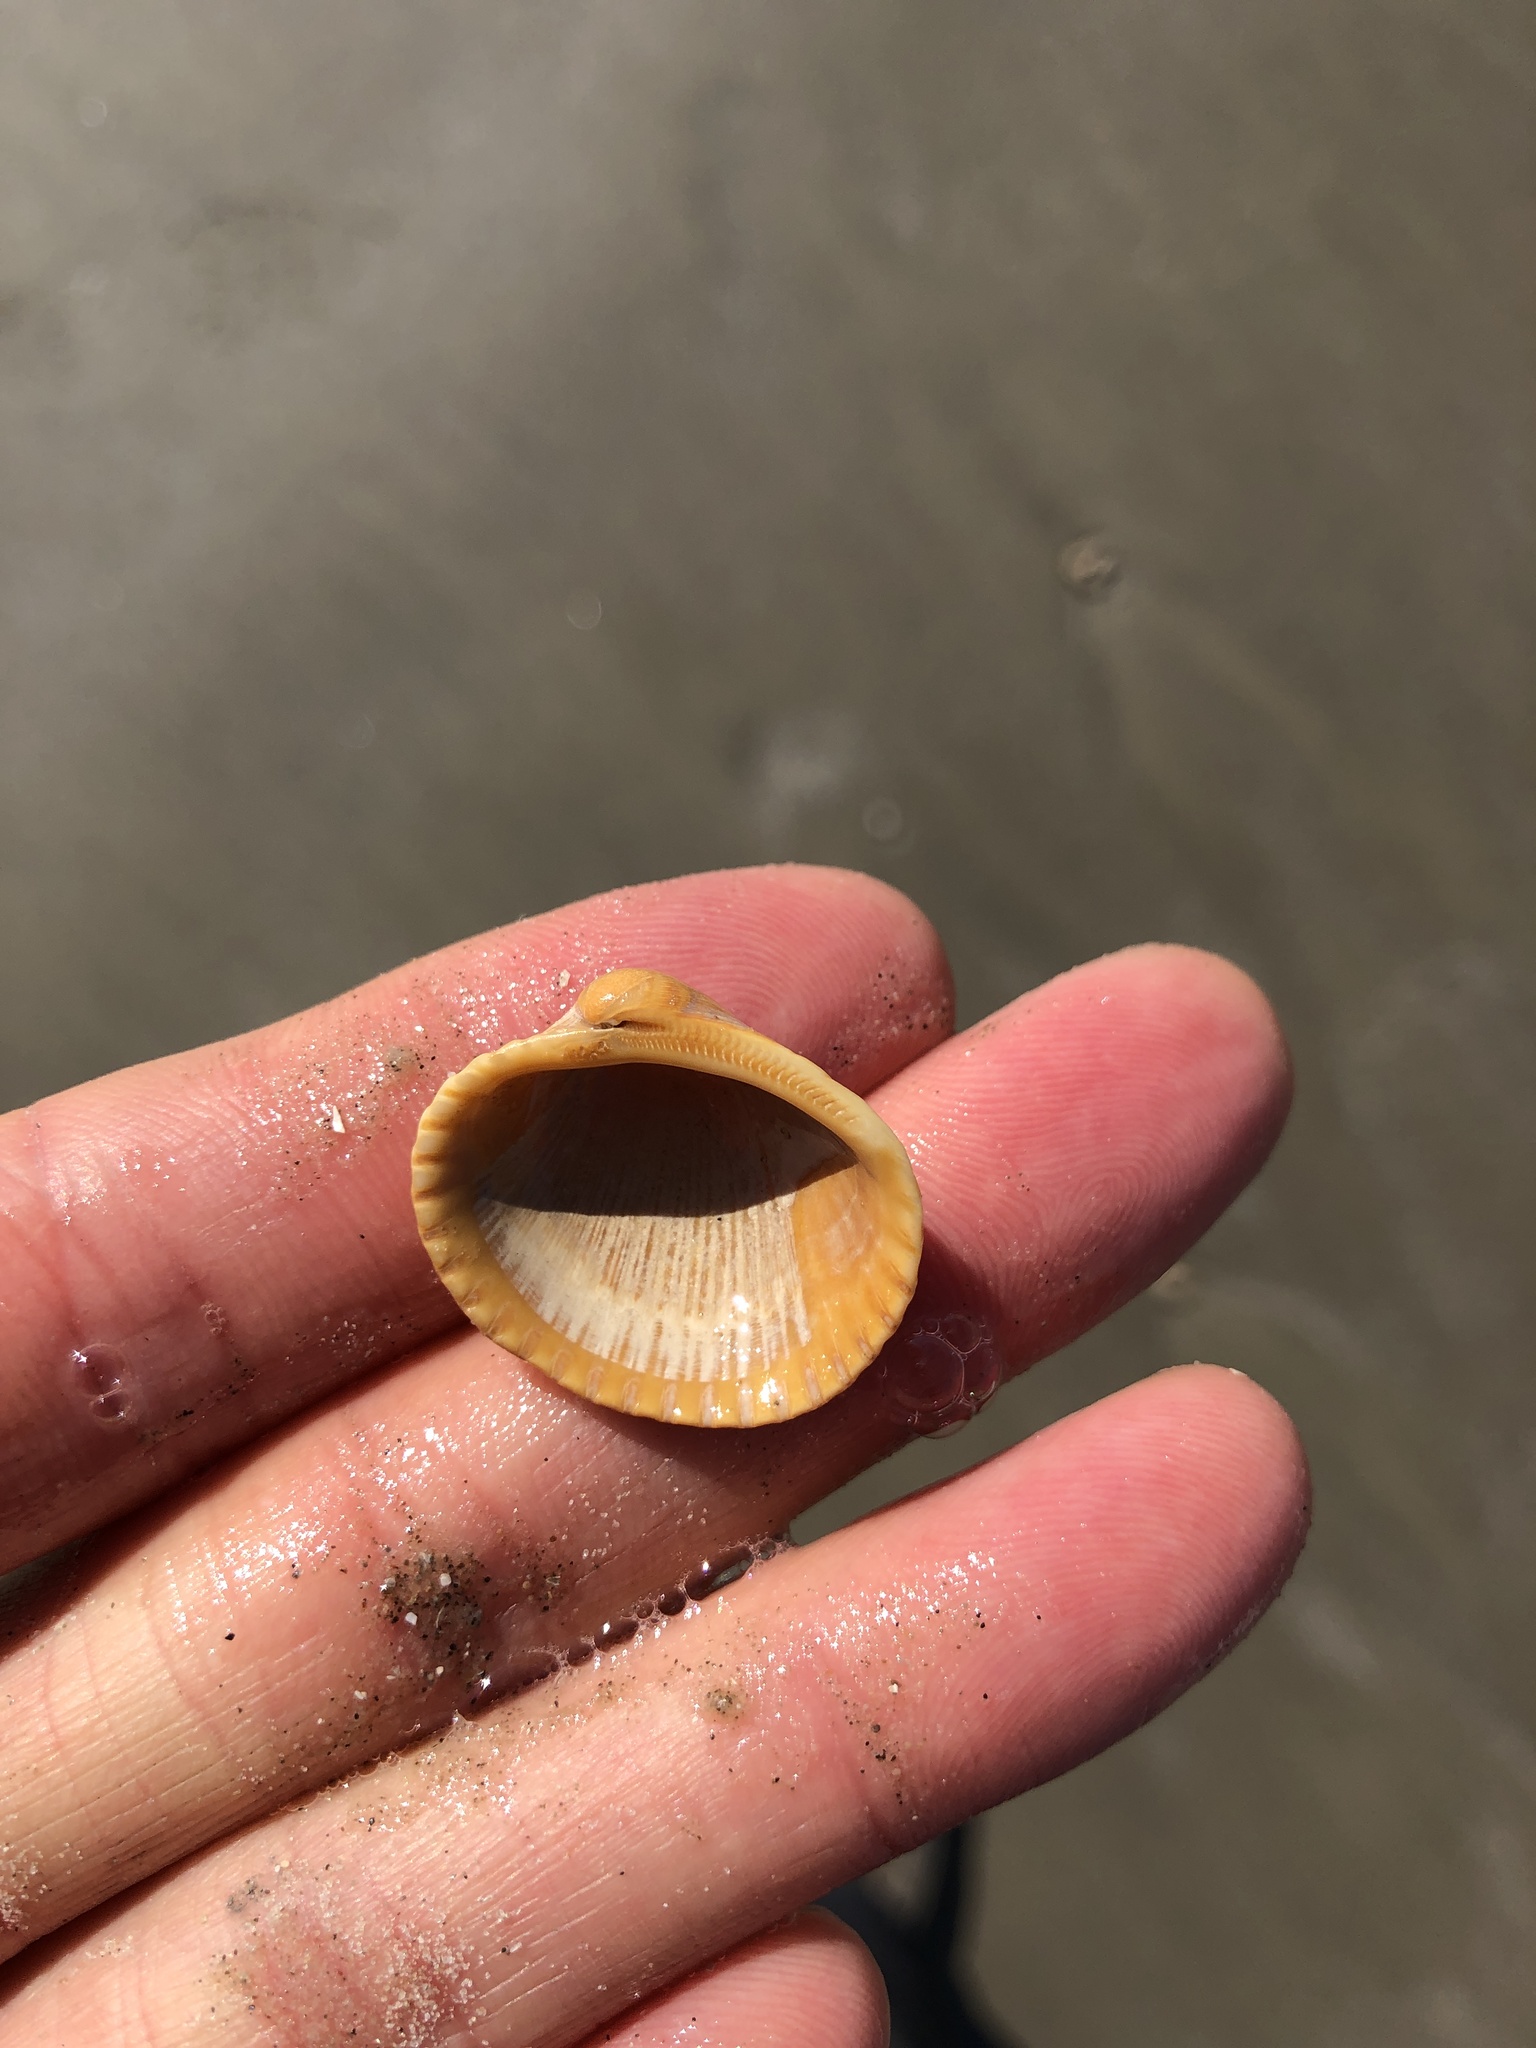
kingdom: Animalia
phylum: Mollusca
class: Bivalvia
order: Arcida
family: Arcidae
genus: Lunarca
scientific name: Lunarca ovalis
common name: Blood ark
